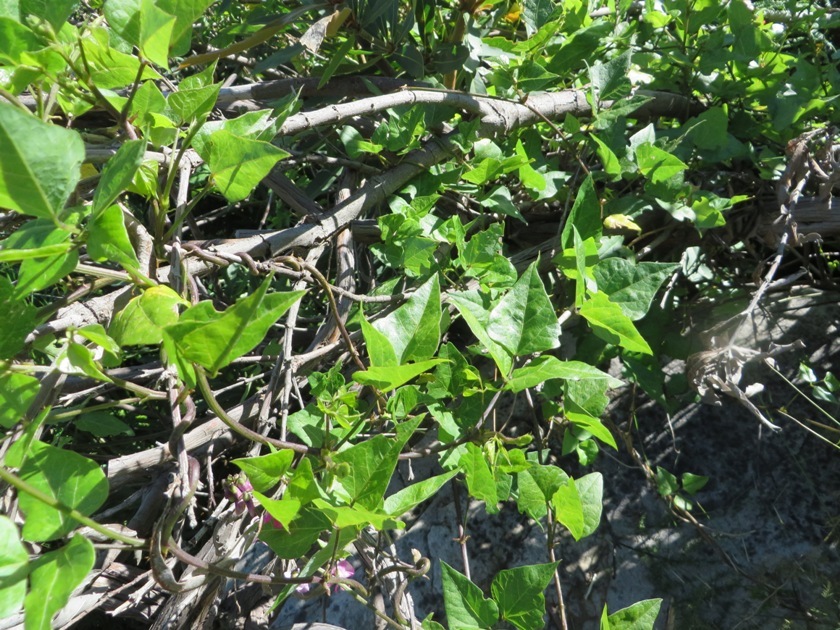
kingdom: Plantae
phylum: Tracheophyta
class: Magnoliopsida
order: Fabales
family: Fabaceae
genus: Dipogon
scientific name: Dipogon lignosus
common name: Okie bean
